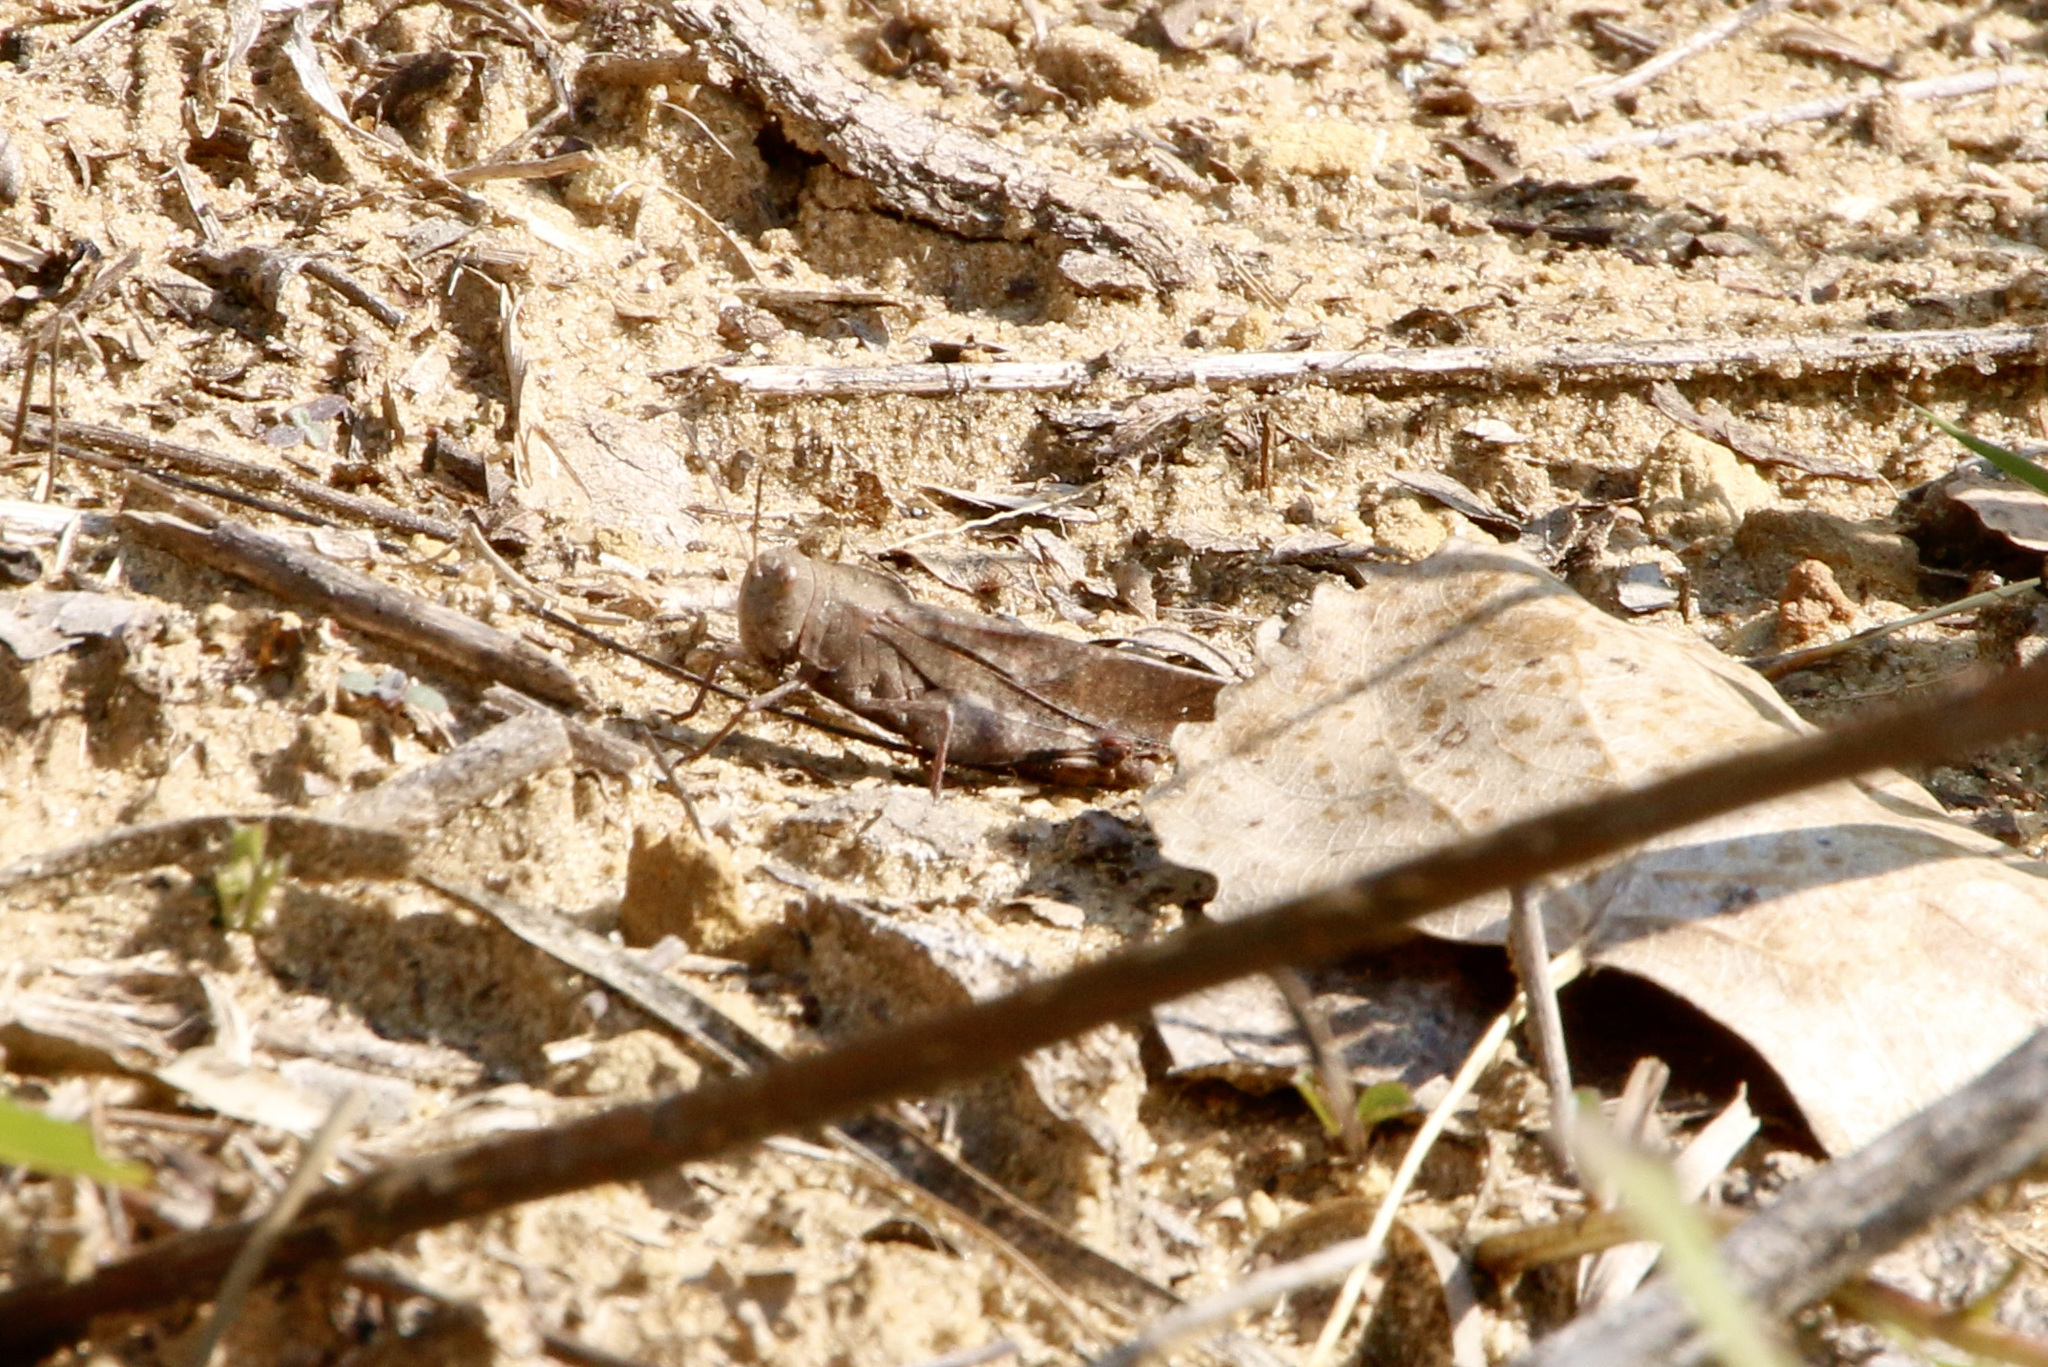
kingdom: Animalia
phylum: Arthropoda
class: Insecta
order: Orthoptera
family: Acrididae
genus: Arphia
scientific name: Arphia xanthoptera
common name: Autumn yellow-winged grasshopper
